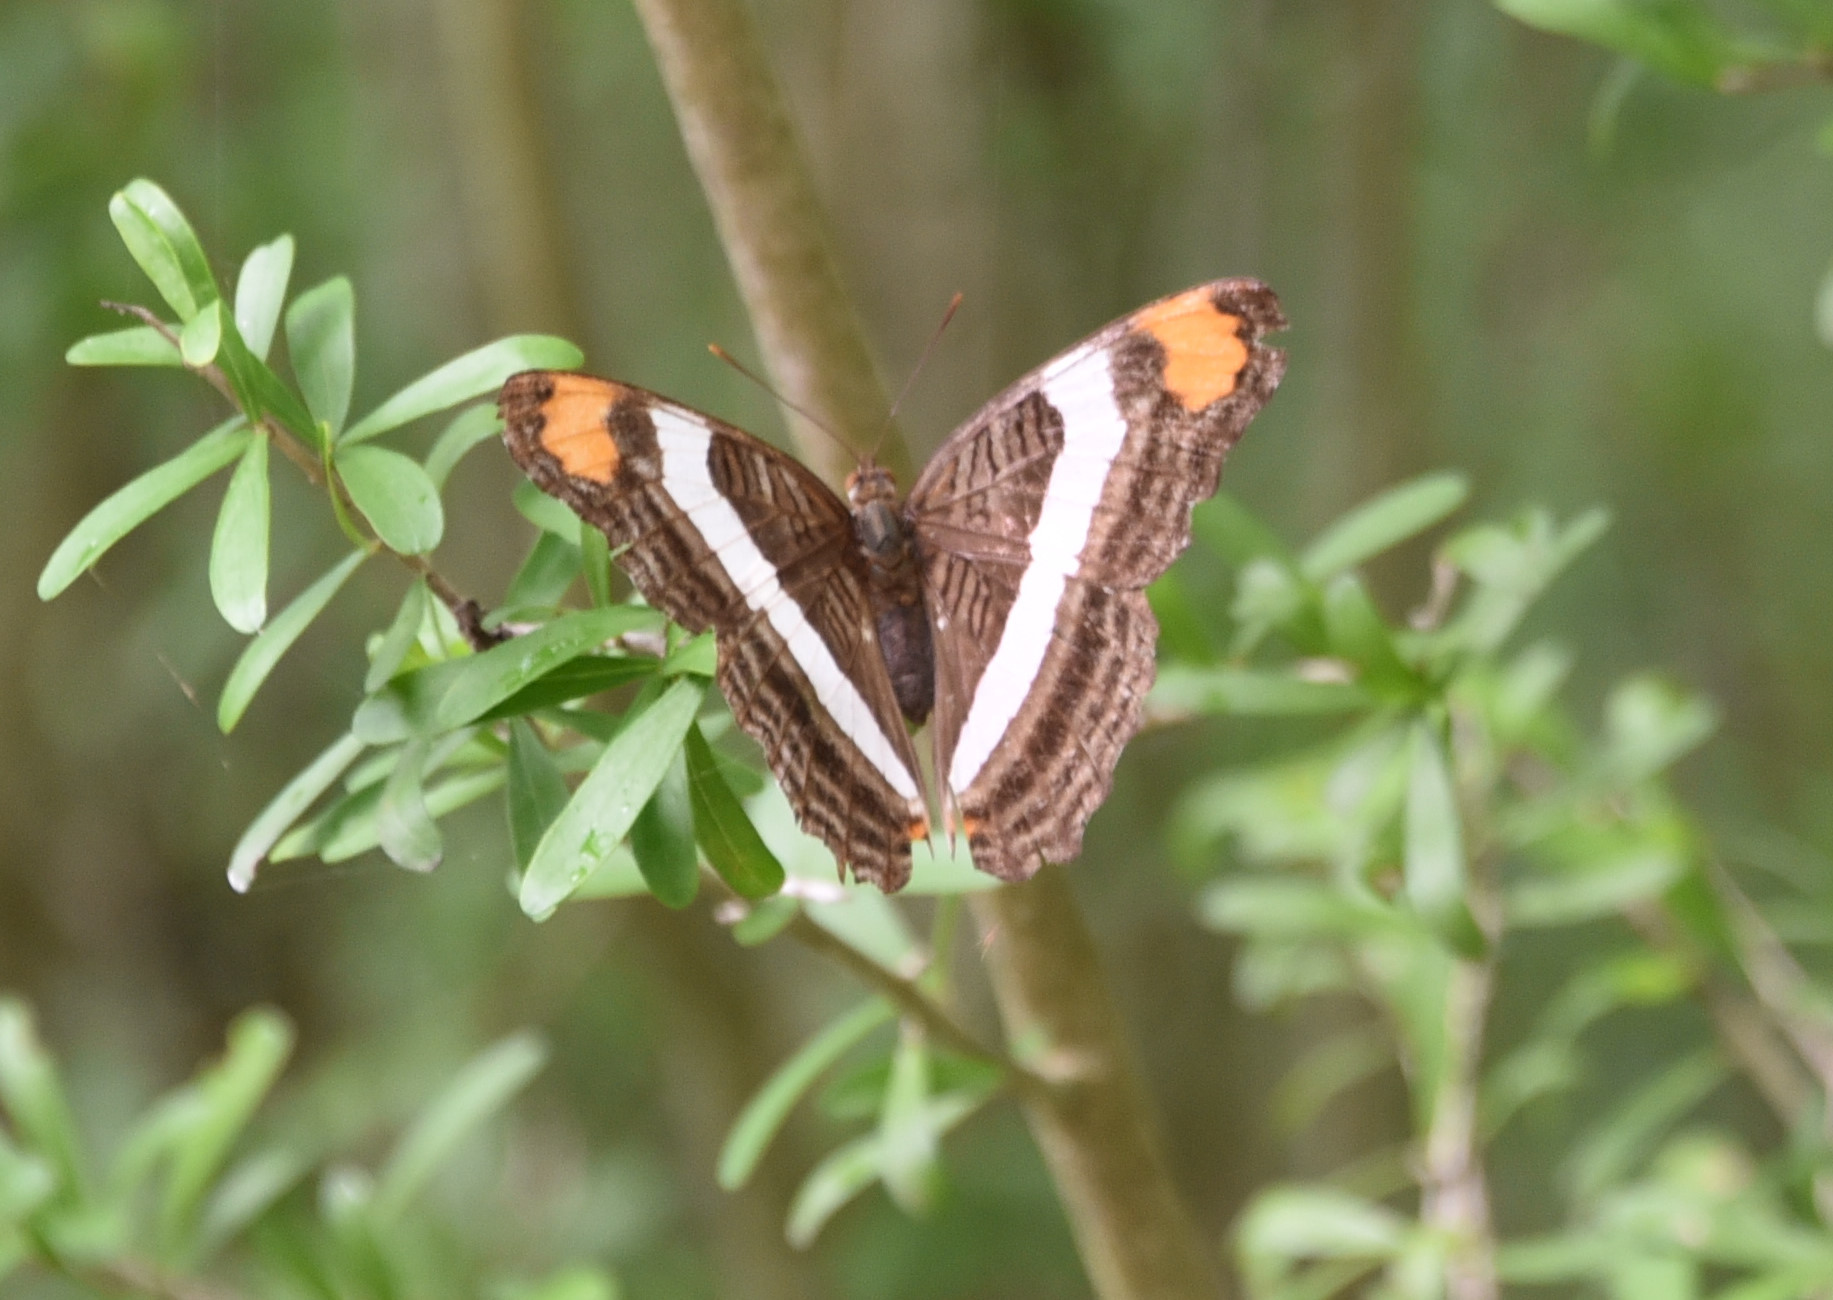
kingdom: Animalia
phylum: Arthropoda
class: Insecta
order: Lepidoptera
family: Nymphalidae
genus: Limenitis
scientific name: Limenitis fessonia
